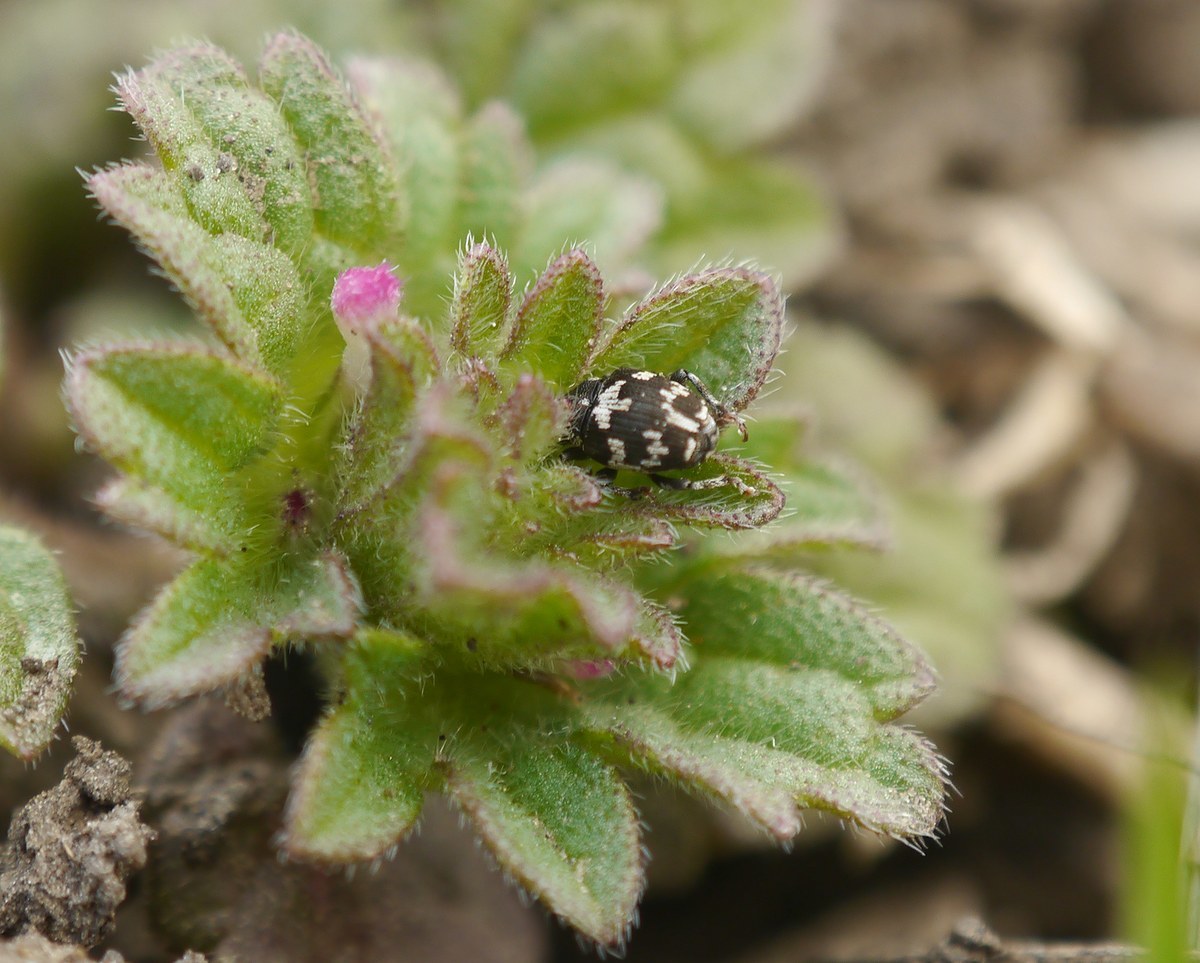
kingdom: Animalia
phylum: Arthropoda
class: Insecta
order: Coleoptera
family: Curculionidae
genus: Thamiocolus
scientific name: Thamiocolus sinapis
